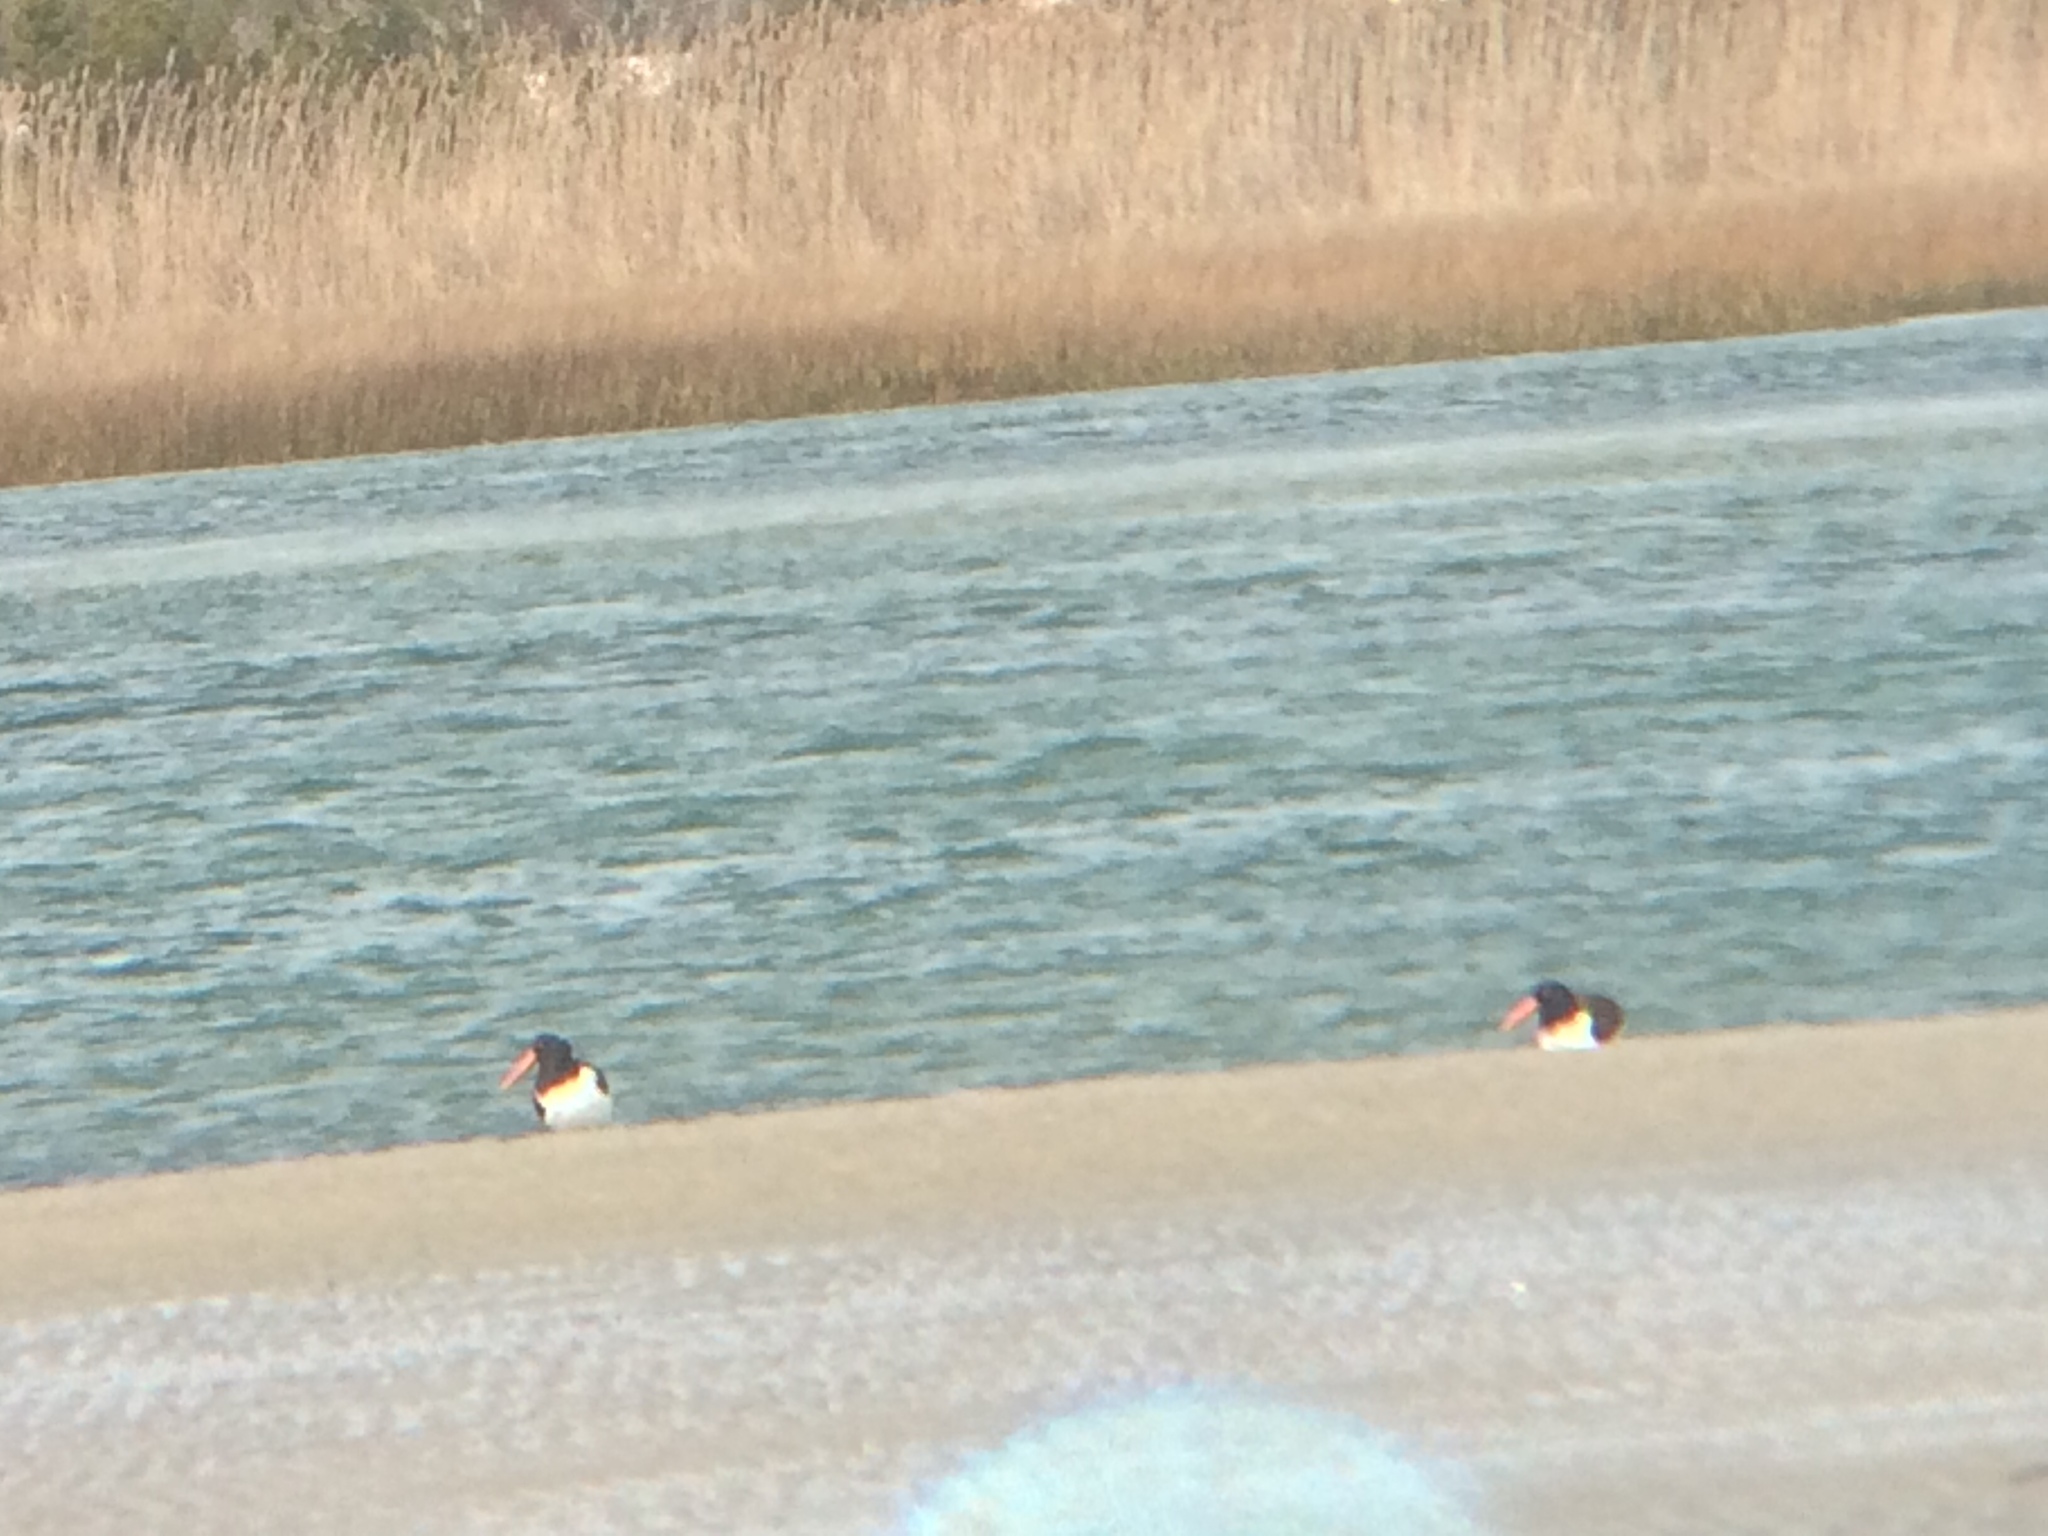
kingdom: Animalia
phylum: Chordata
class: Aves
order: Charadriiformes
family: Haematopodidae
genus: Haematopus
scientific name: Haematopus palliatus
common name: American oystercatcher
